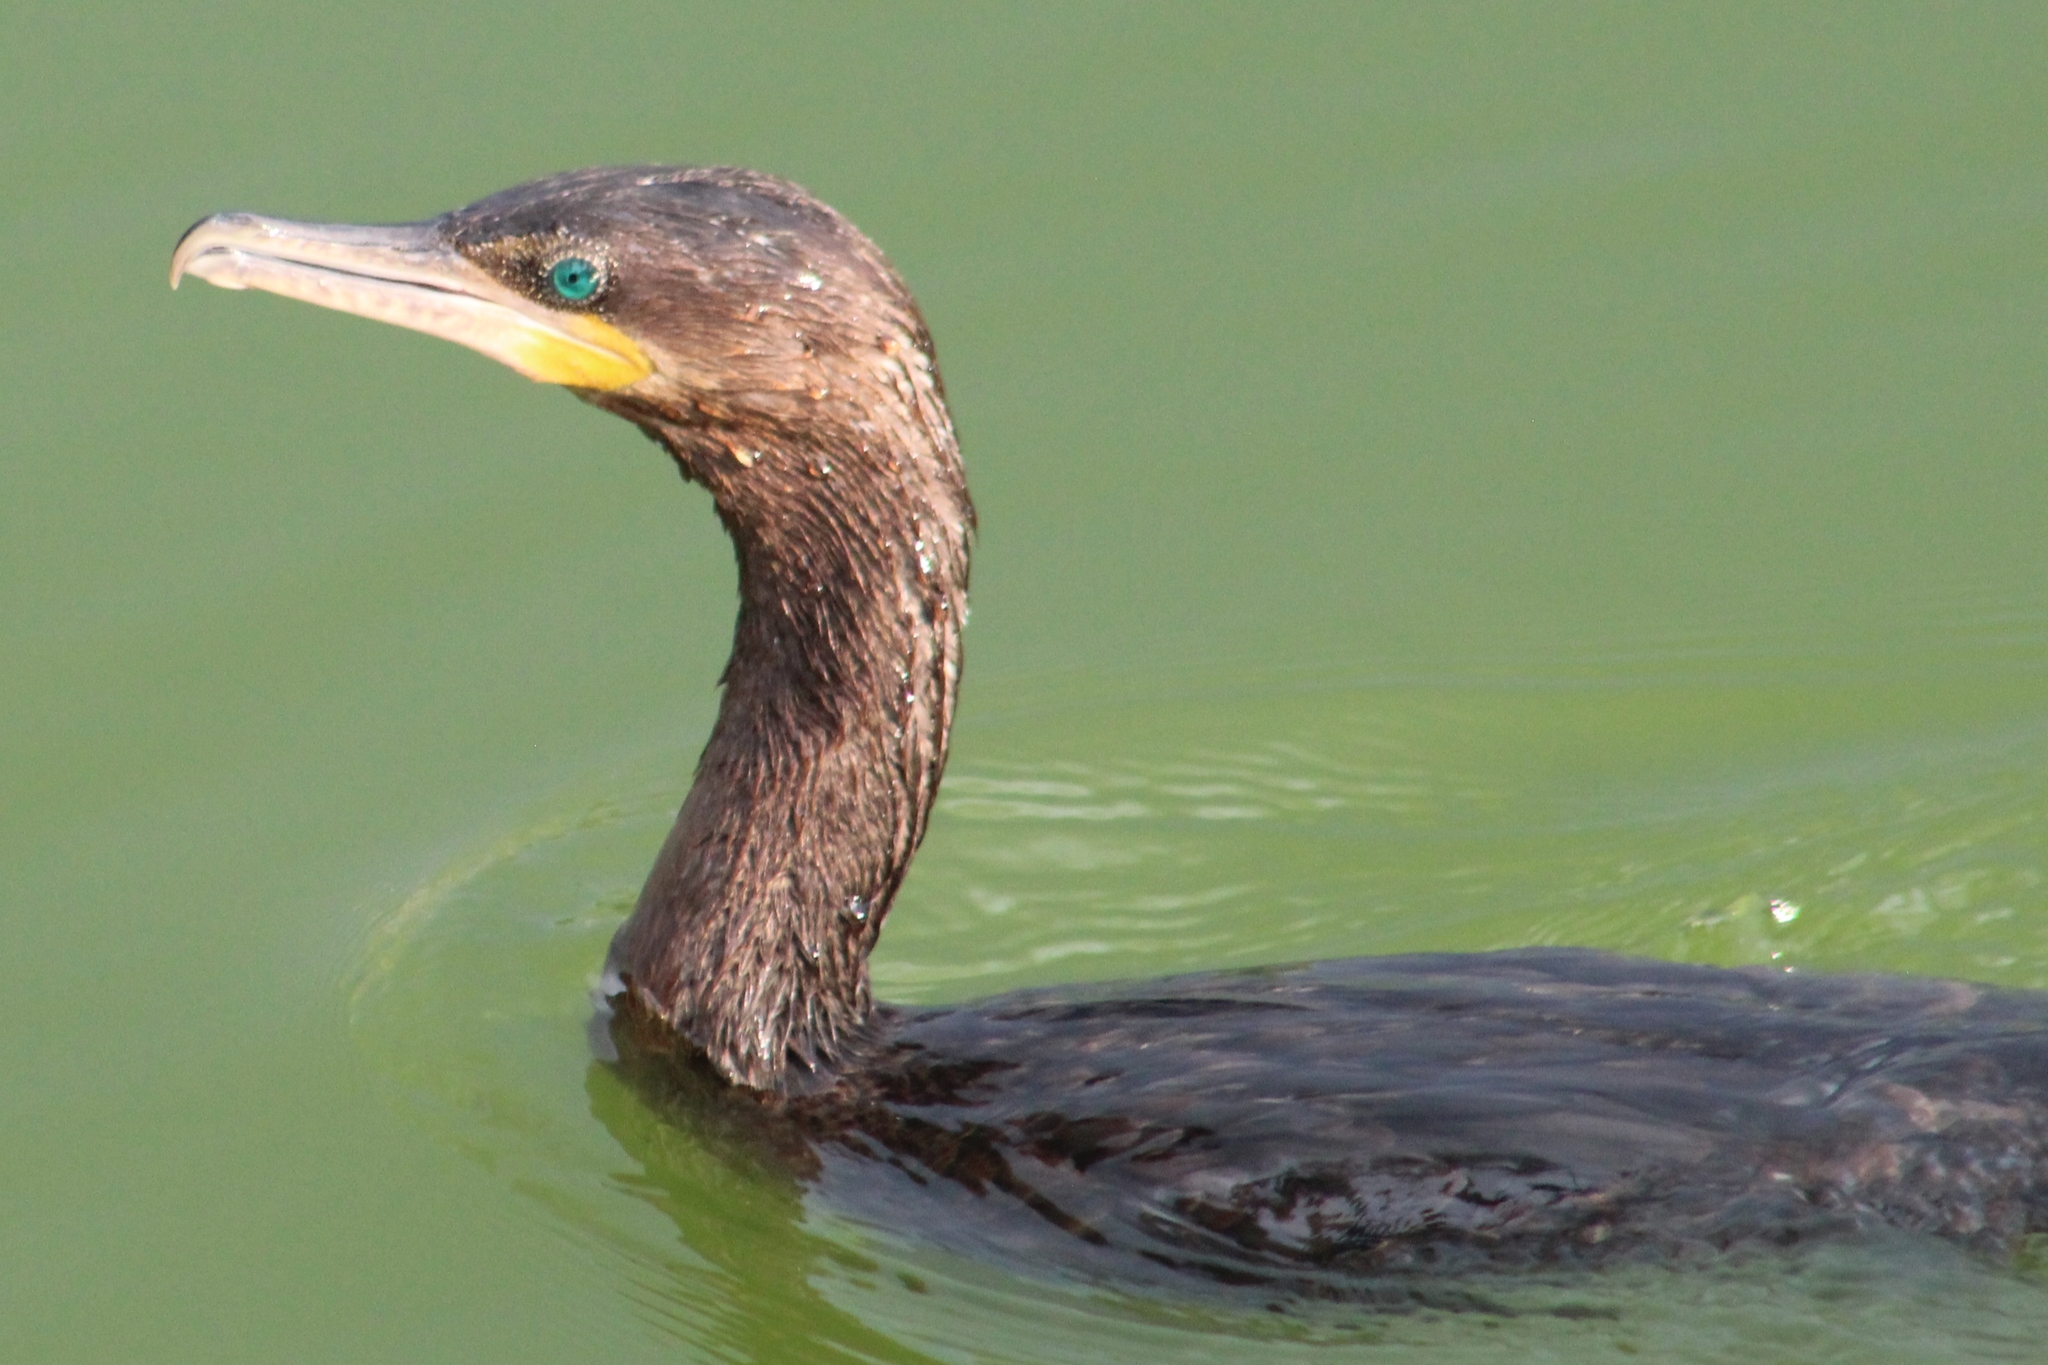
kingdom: Animalia
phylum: Chordata
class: Aves
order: Suliformes
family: Phalacrocoracidae
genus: Phalacrocorax
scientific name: Phalacrocorax brasilianus
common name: Neotropic cormorant
